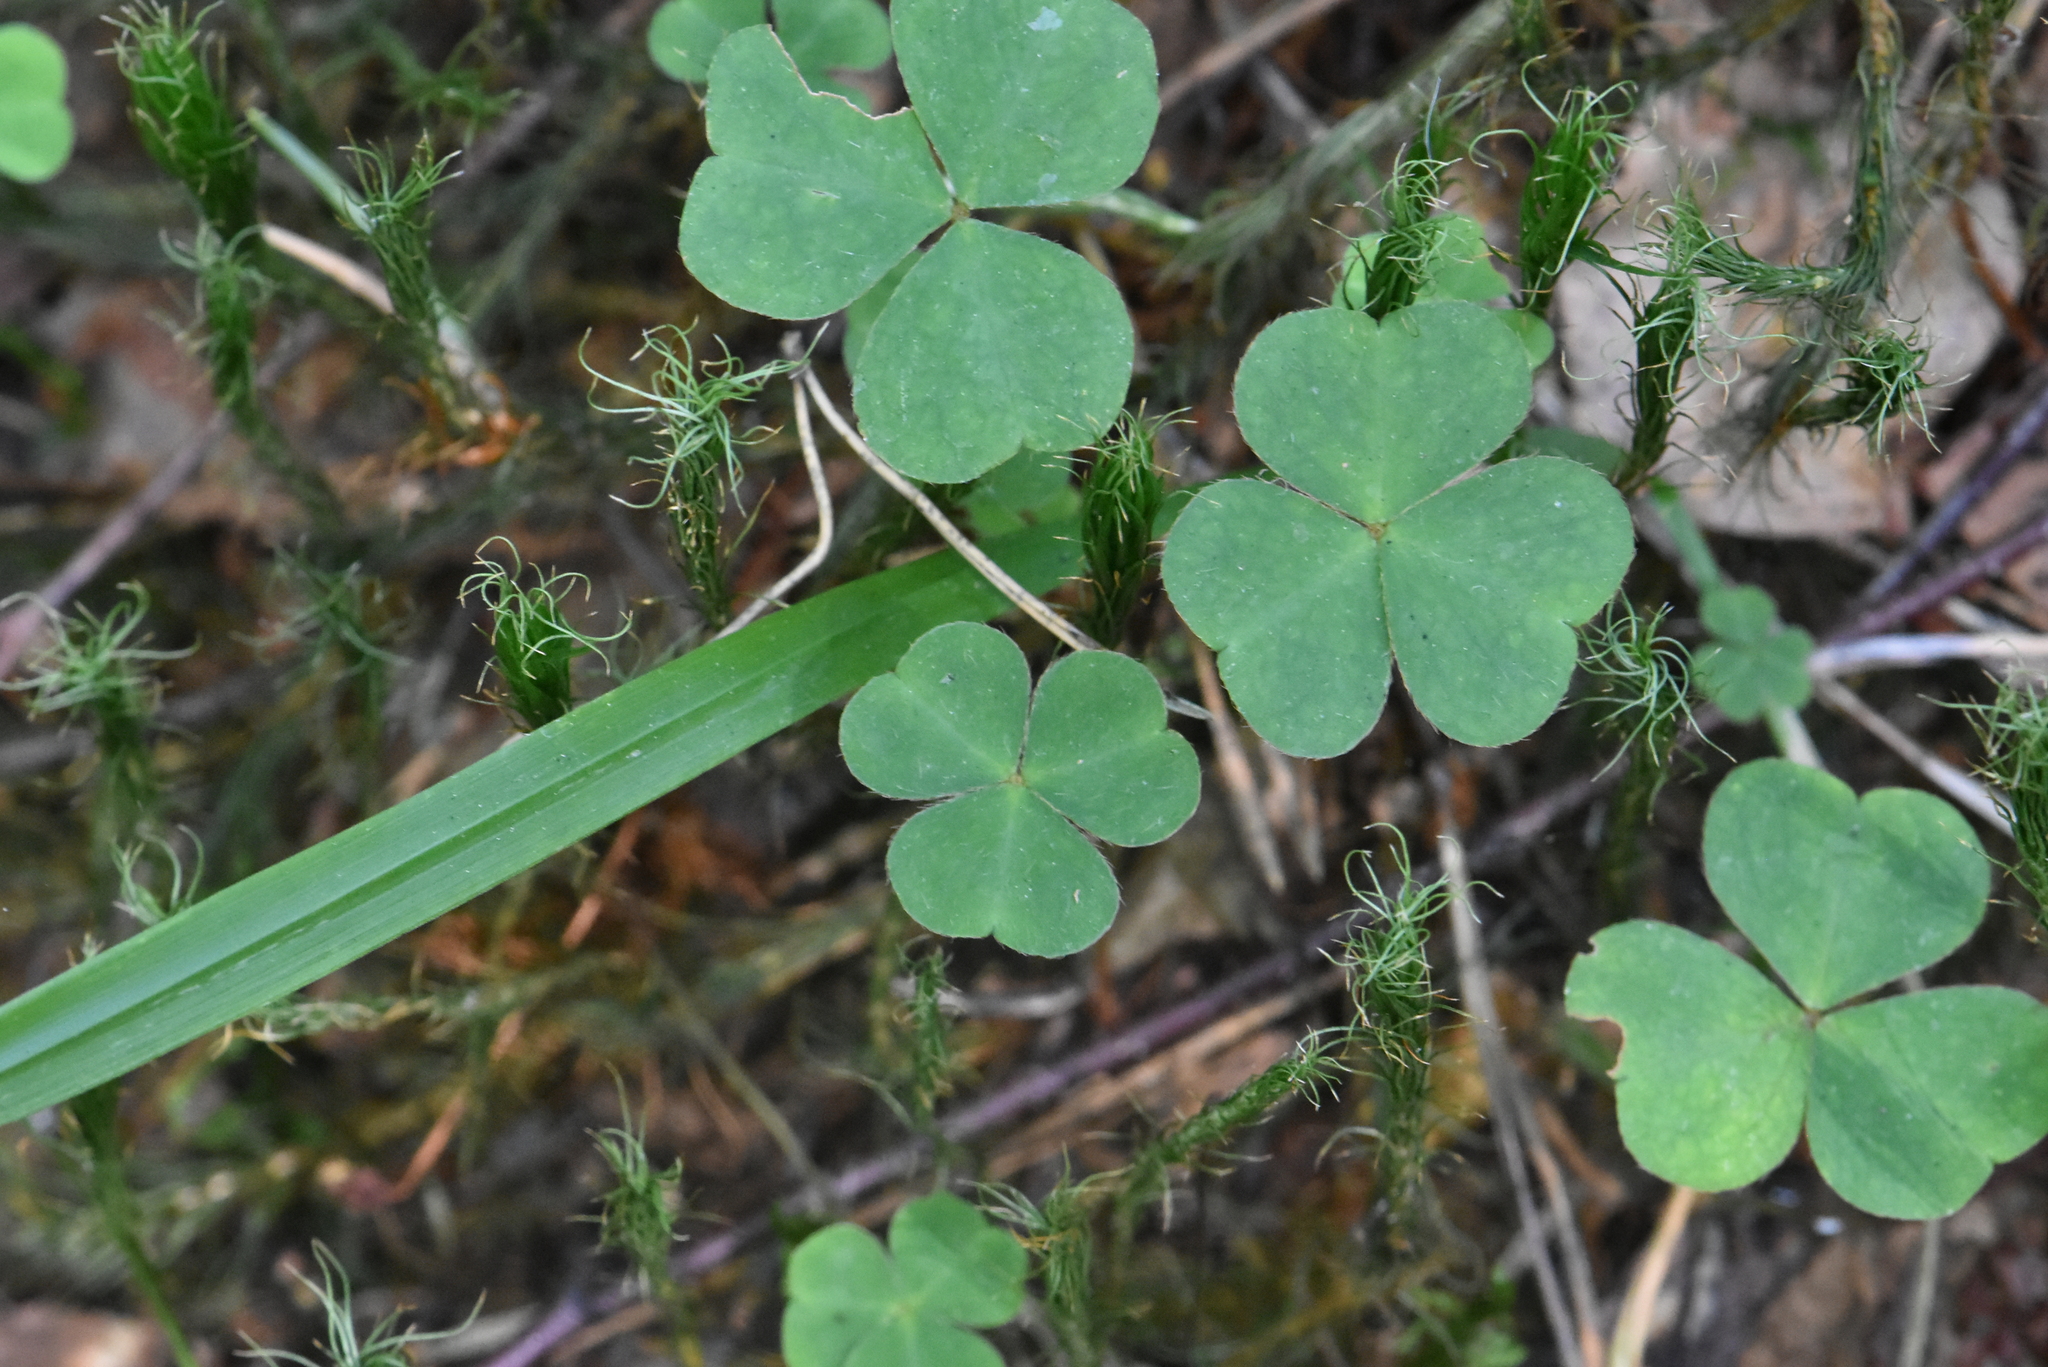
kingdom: Plantae
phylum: Tracheophyta
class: Magnoliopsida
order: Oxalidales
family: Oxalidaceae
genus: Oxalis
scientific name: Oxalis acetosella
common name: Wood-sorrel
